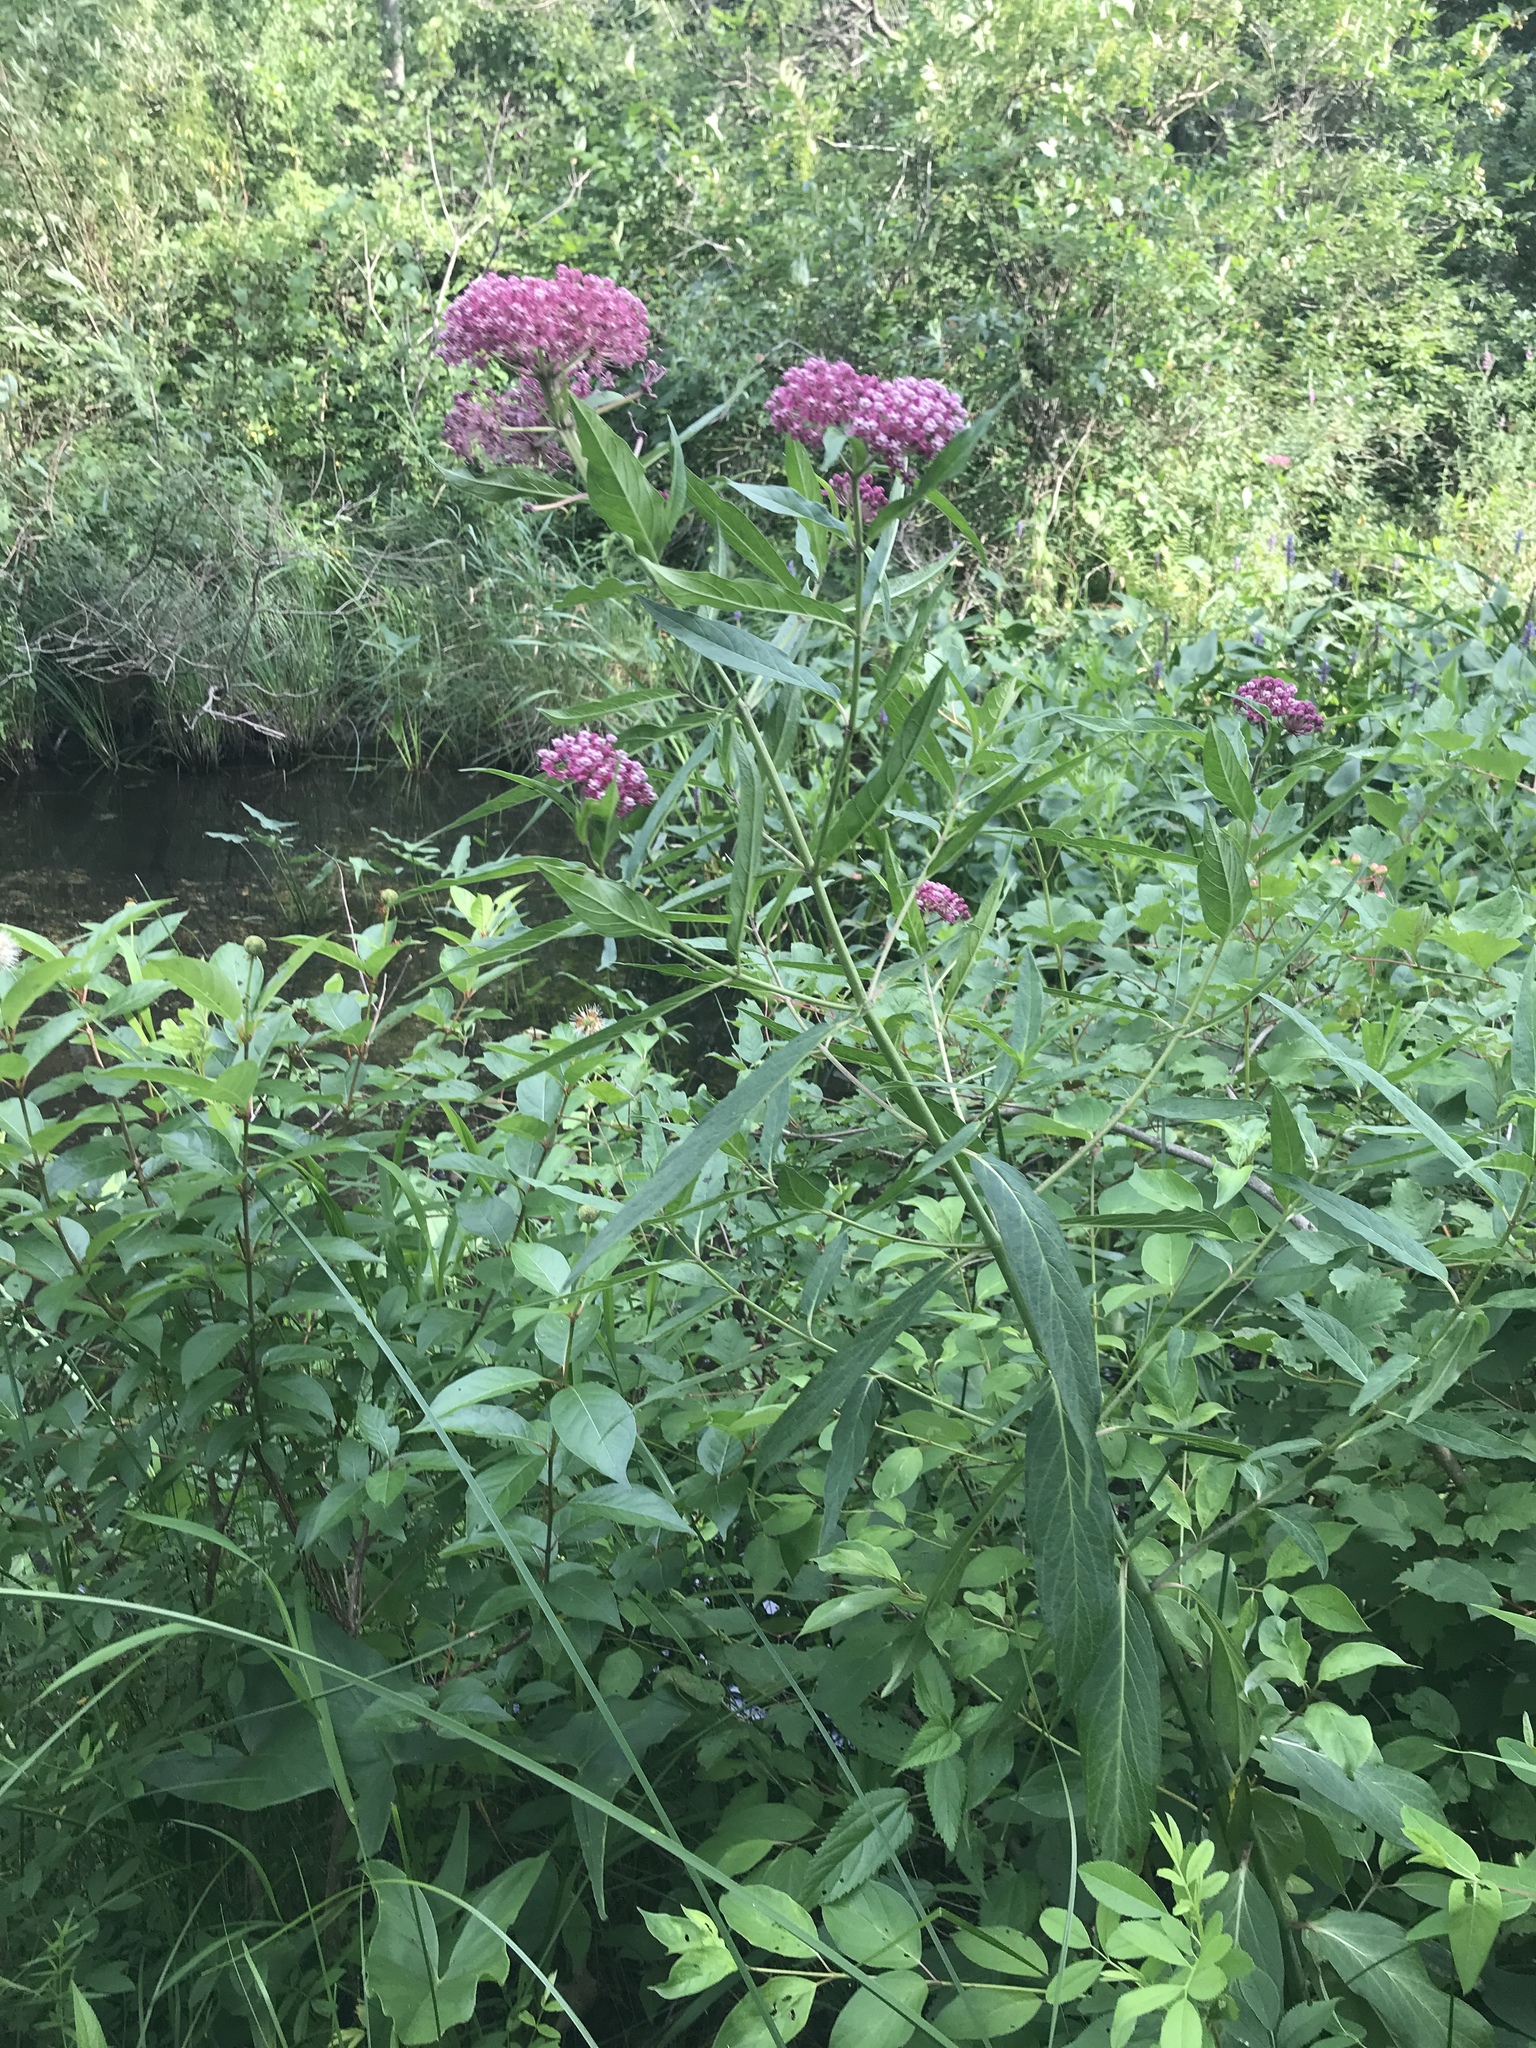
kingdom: Plantae
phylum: Tracheophyta
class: Magnoliopsida
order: Gentianales
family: Apocynaceae
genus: Asclepias
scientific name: Asclepias incarnata
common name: Swamp milkweed
